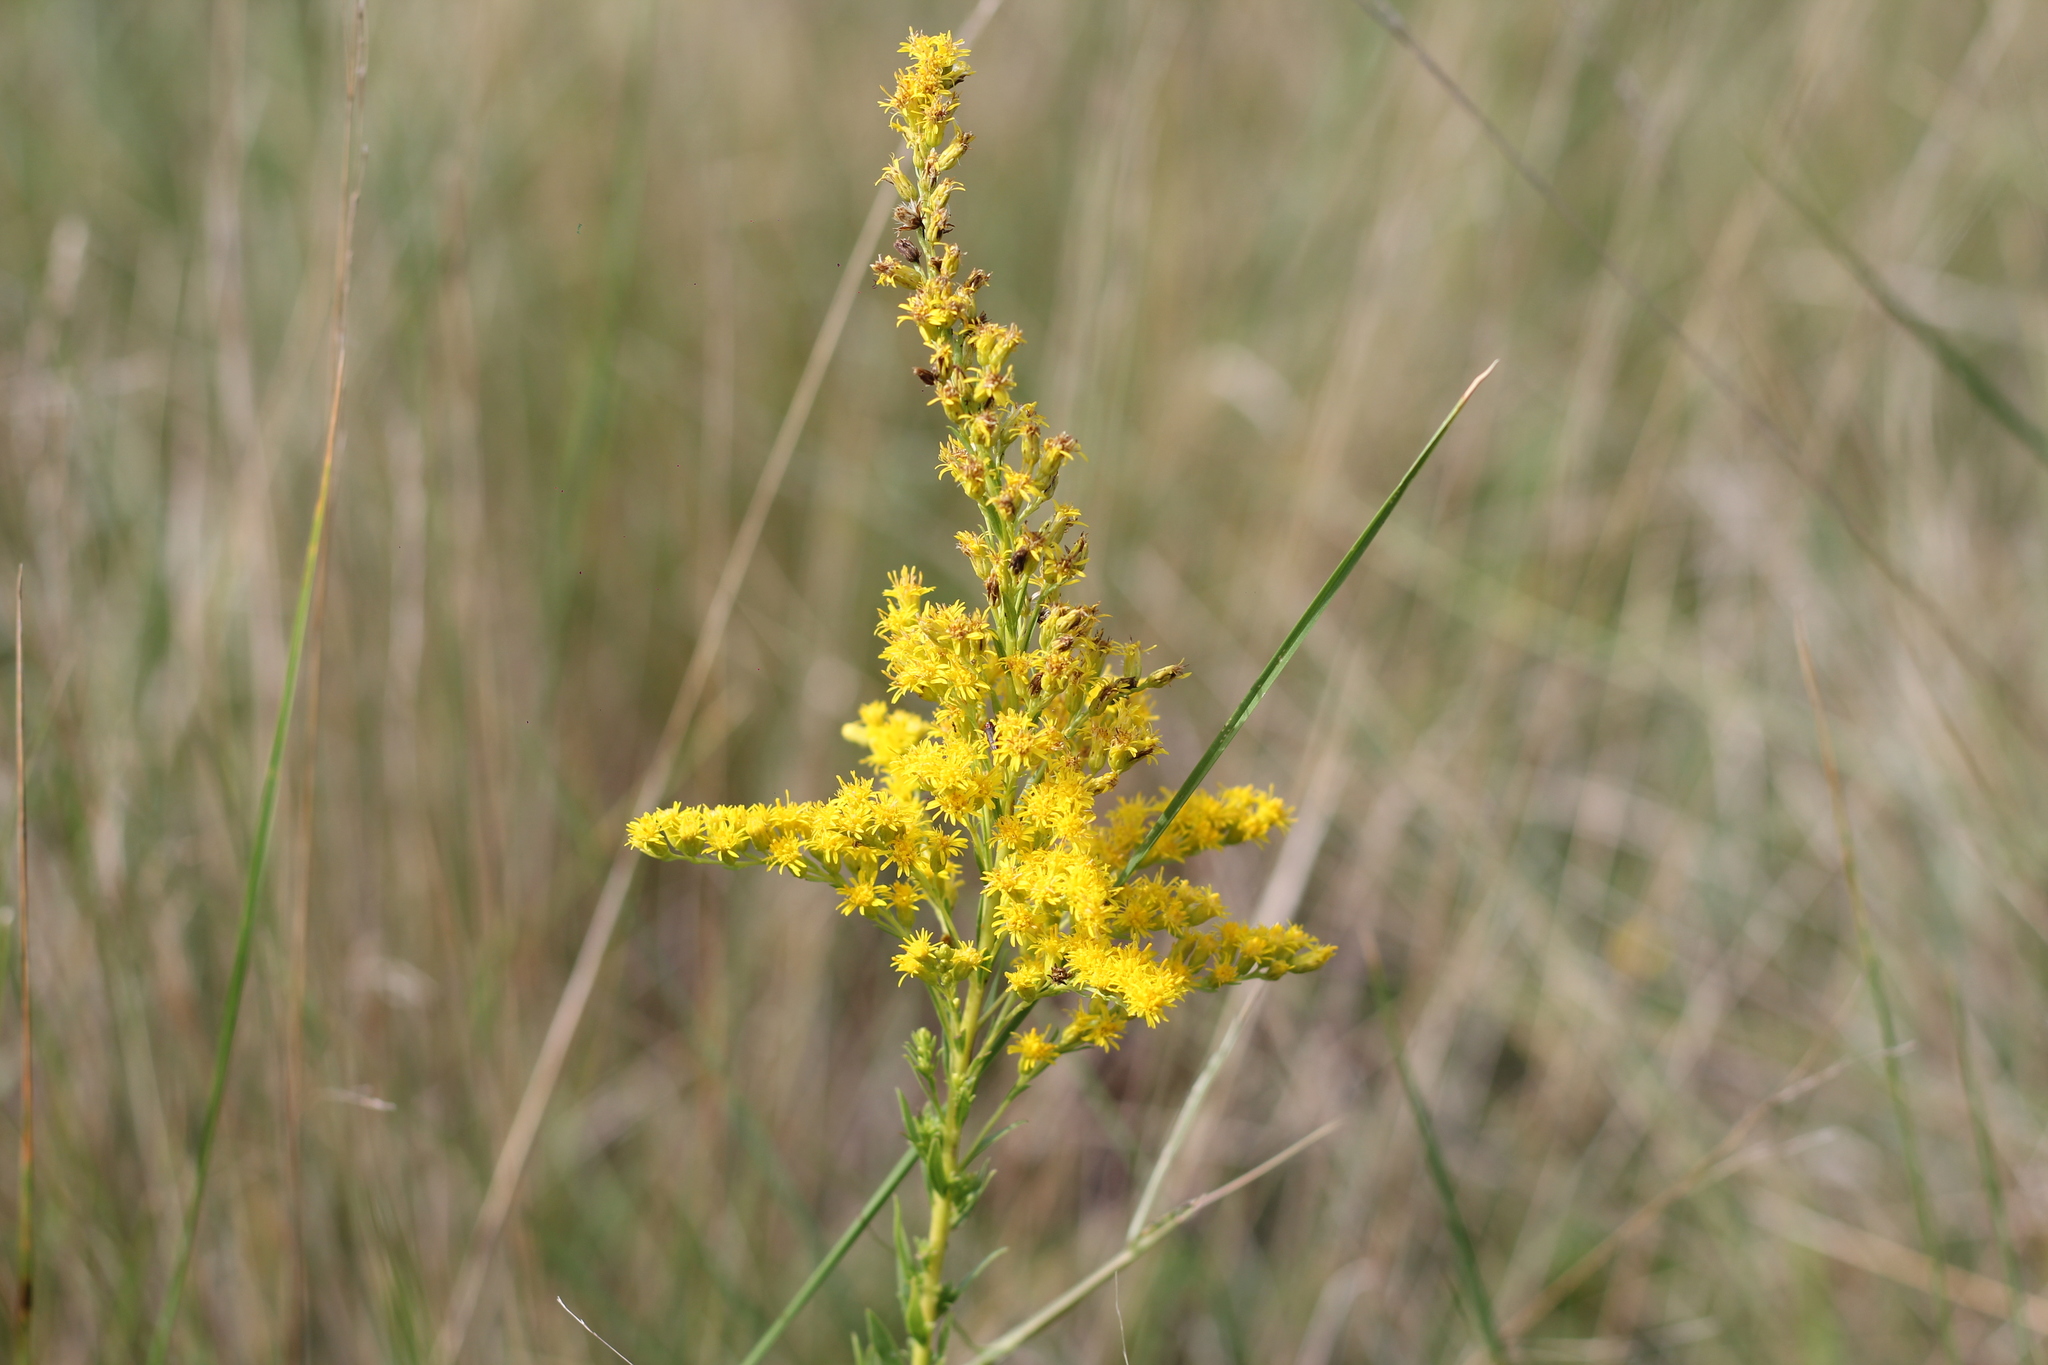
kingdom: Plantae
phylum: Tracheophyta
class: Magnoliopsida
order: Asterales
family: Asteraceae
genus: Solidago
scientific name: Solidago chilensis
